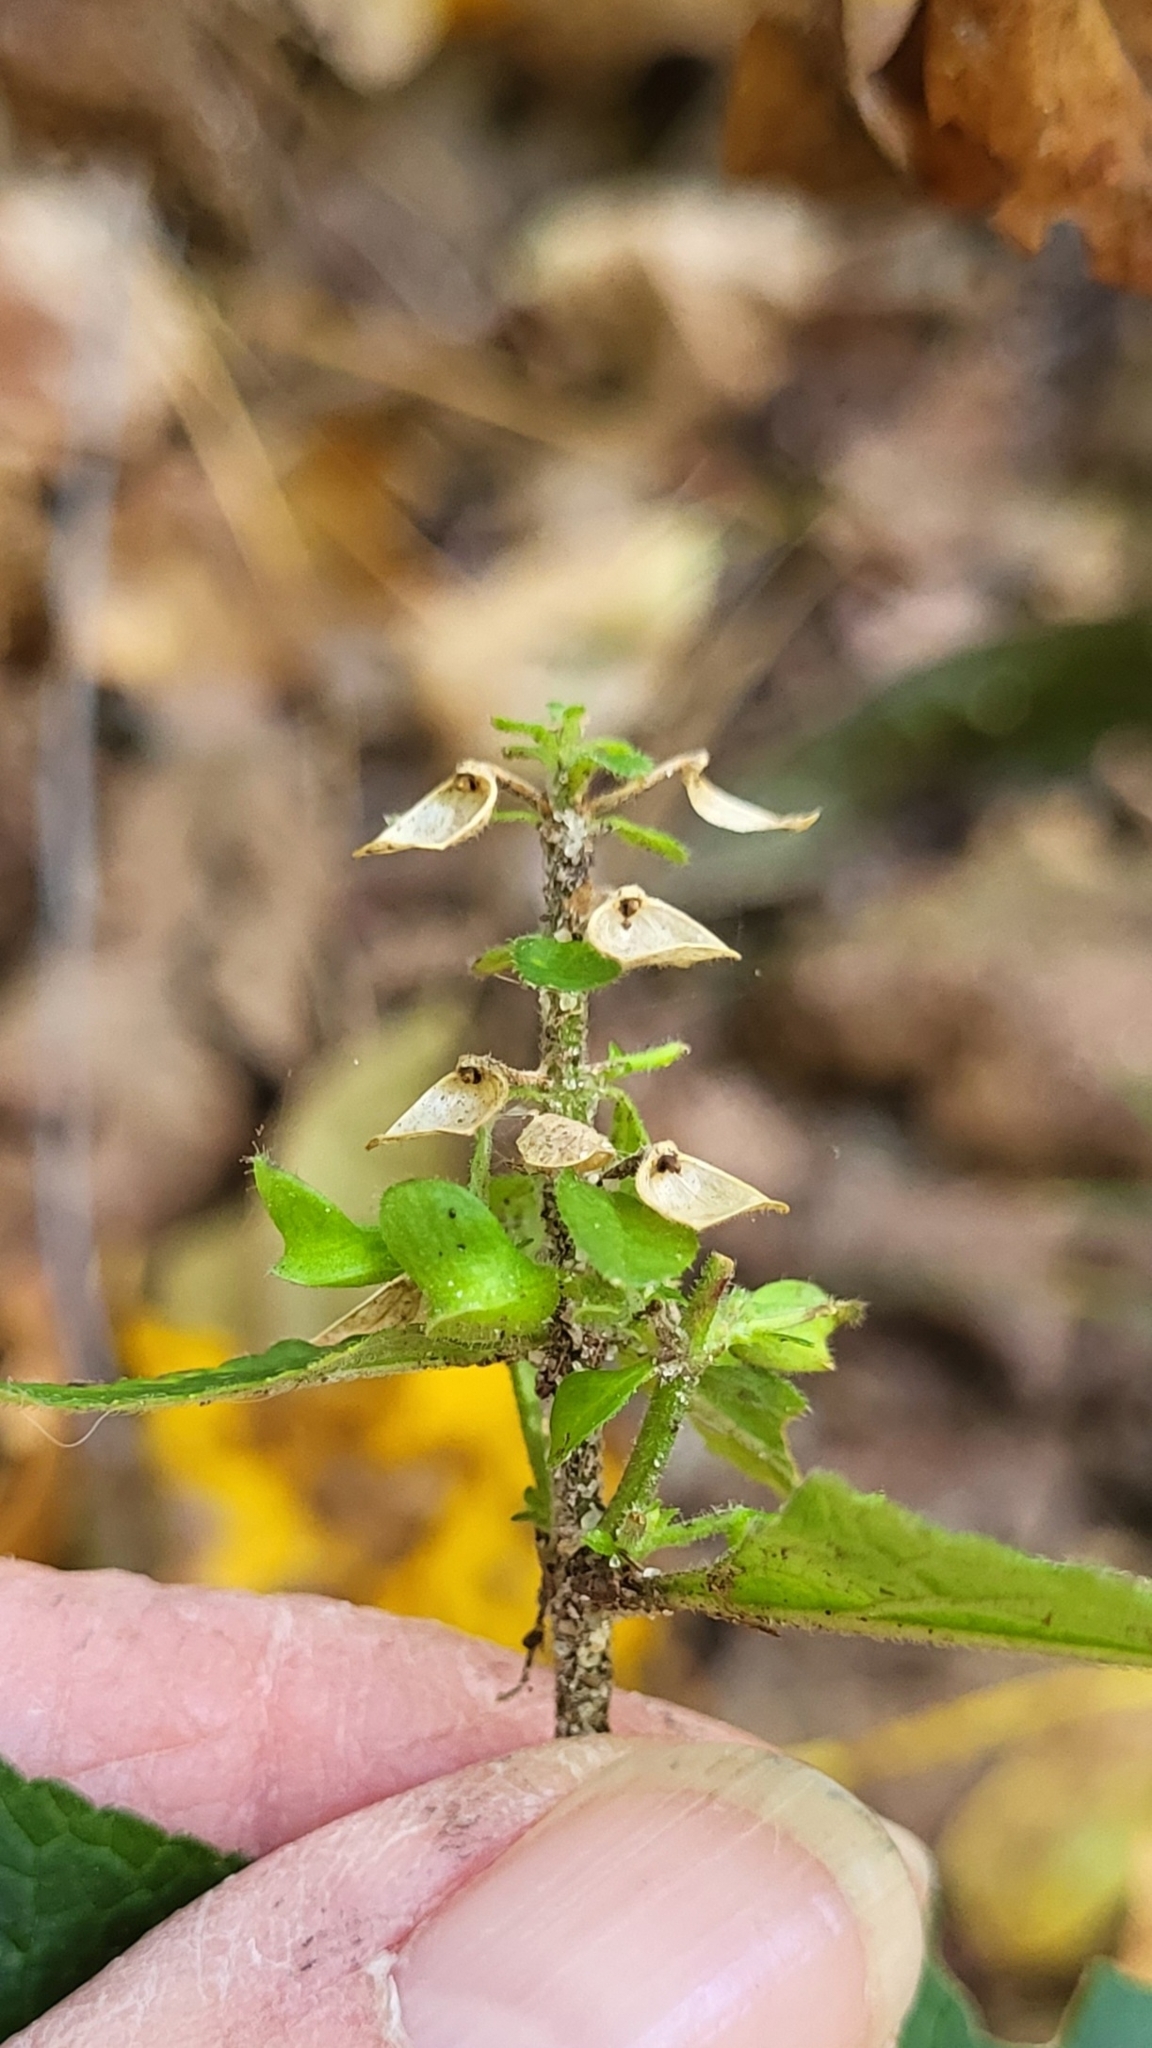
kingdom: Plantae
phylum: Tracheophyta
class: Magnoliopsida
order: Lamiales
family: Lamiaceae
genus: Scutellaria
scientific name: Scutellaria elliptica
